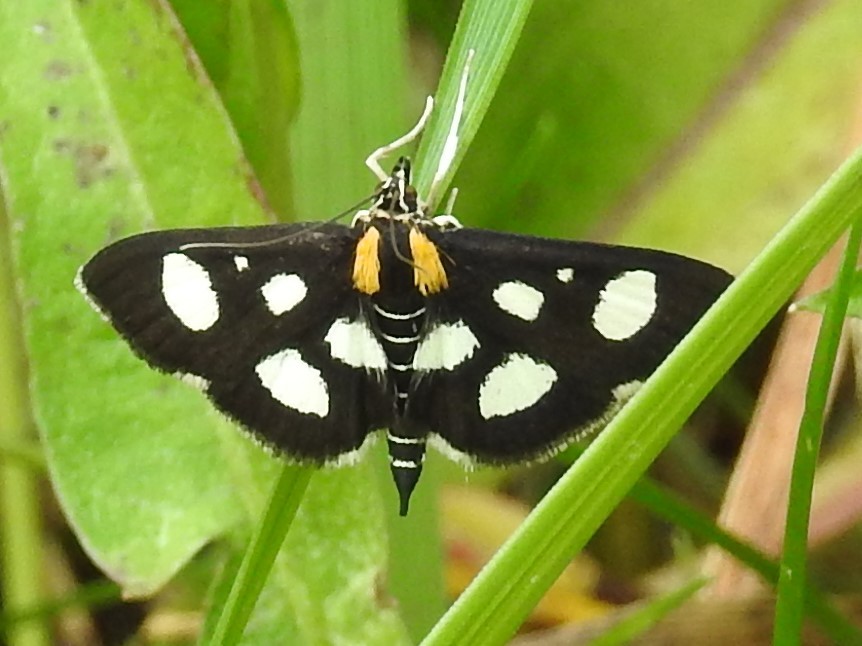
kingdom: Animalia
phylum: Arthropoda
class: Insecta
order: Lepidoptera
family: Crambidae
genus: Anania
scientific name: Anania funebris
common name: White-spotted sable moth
